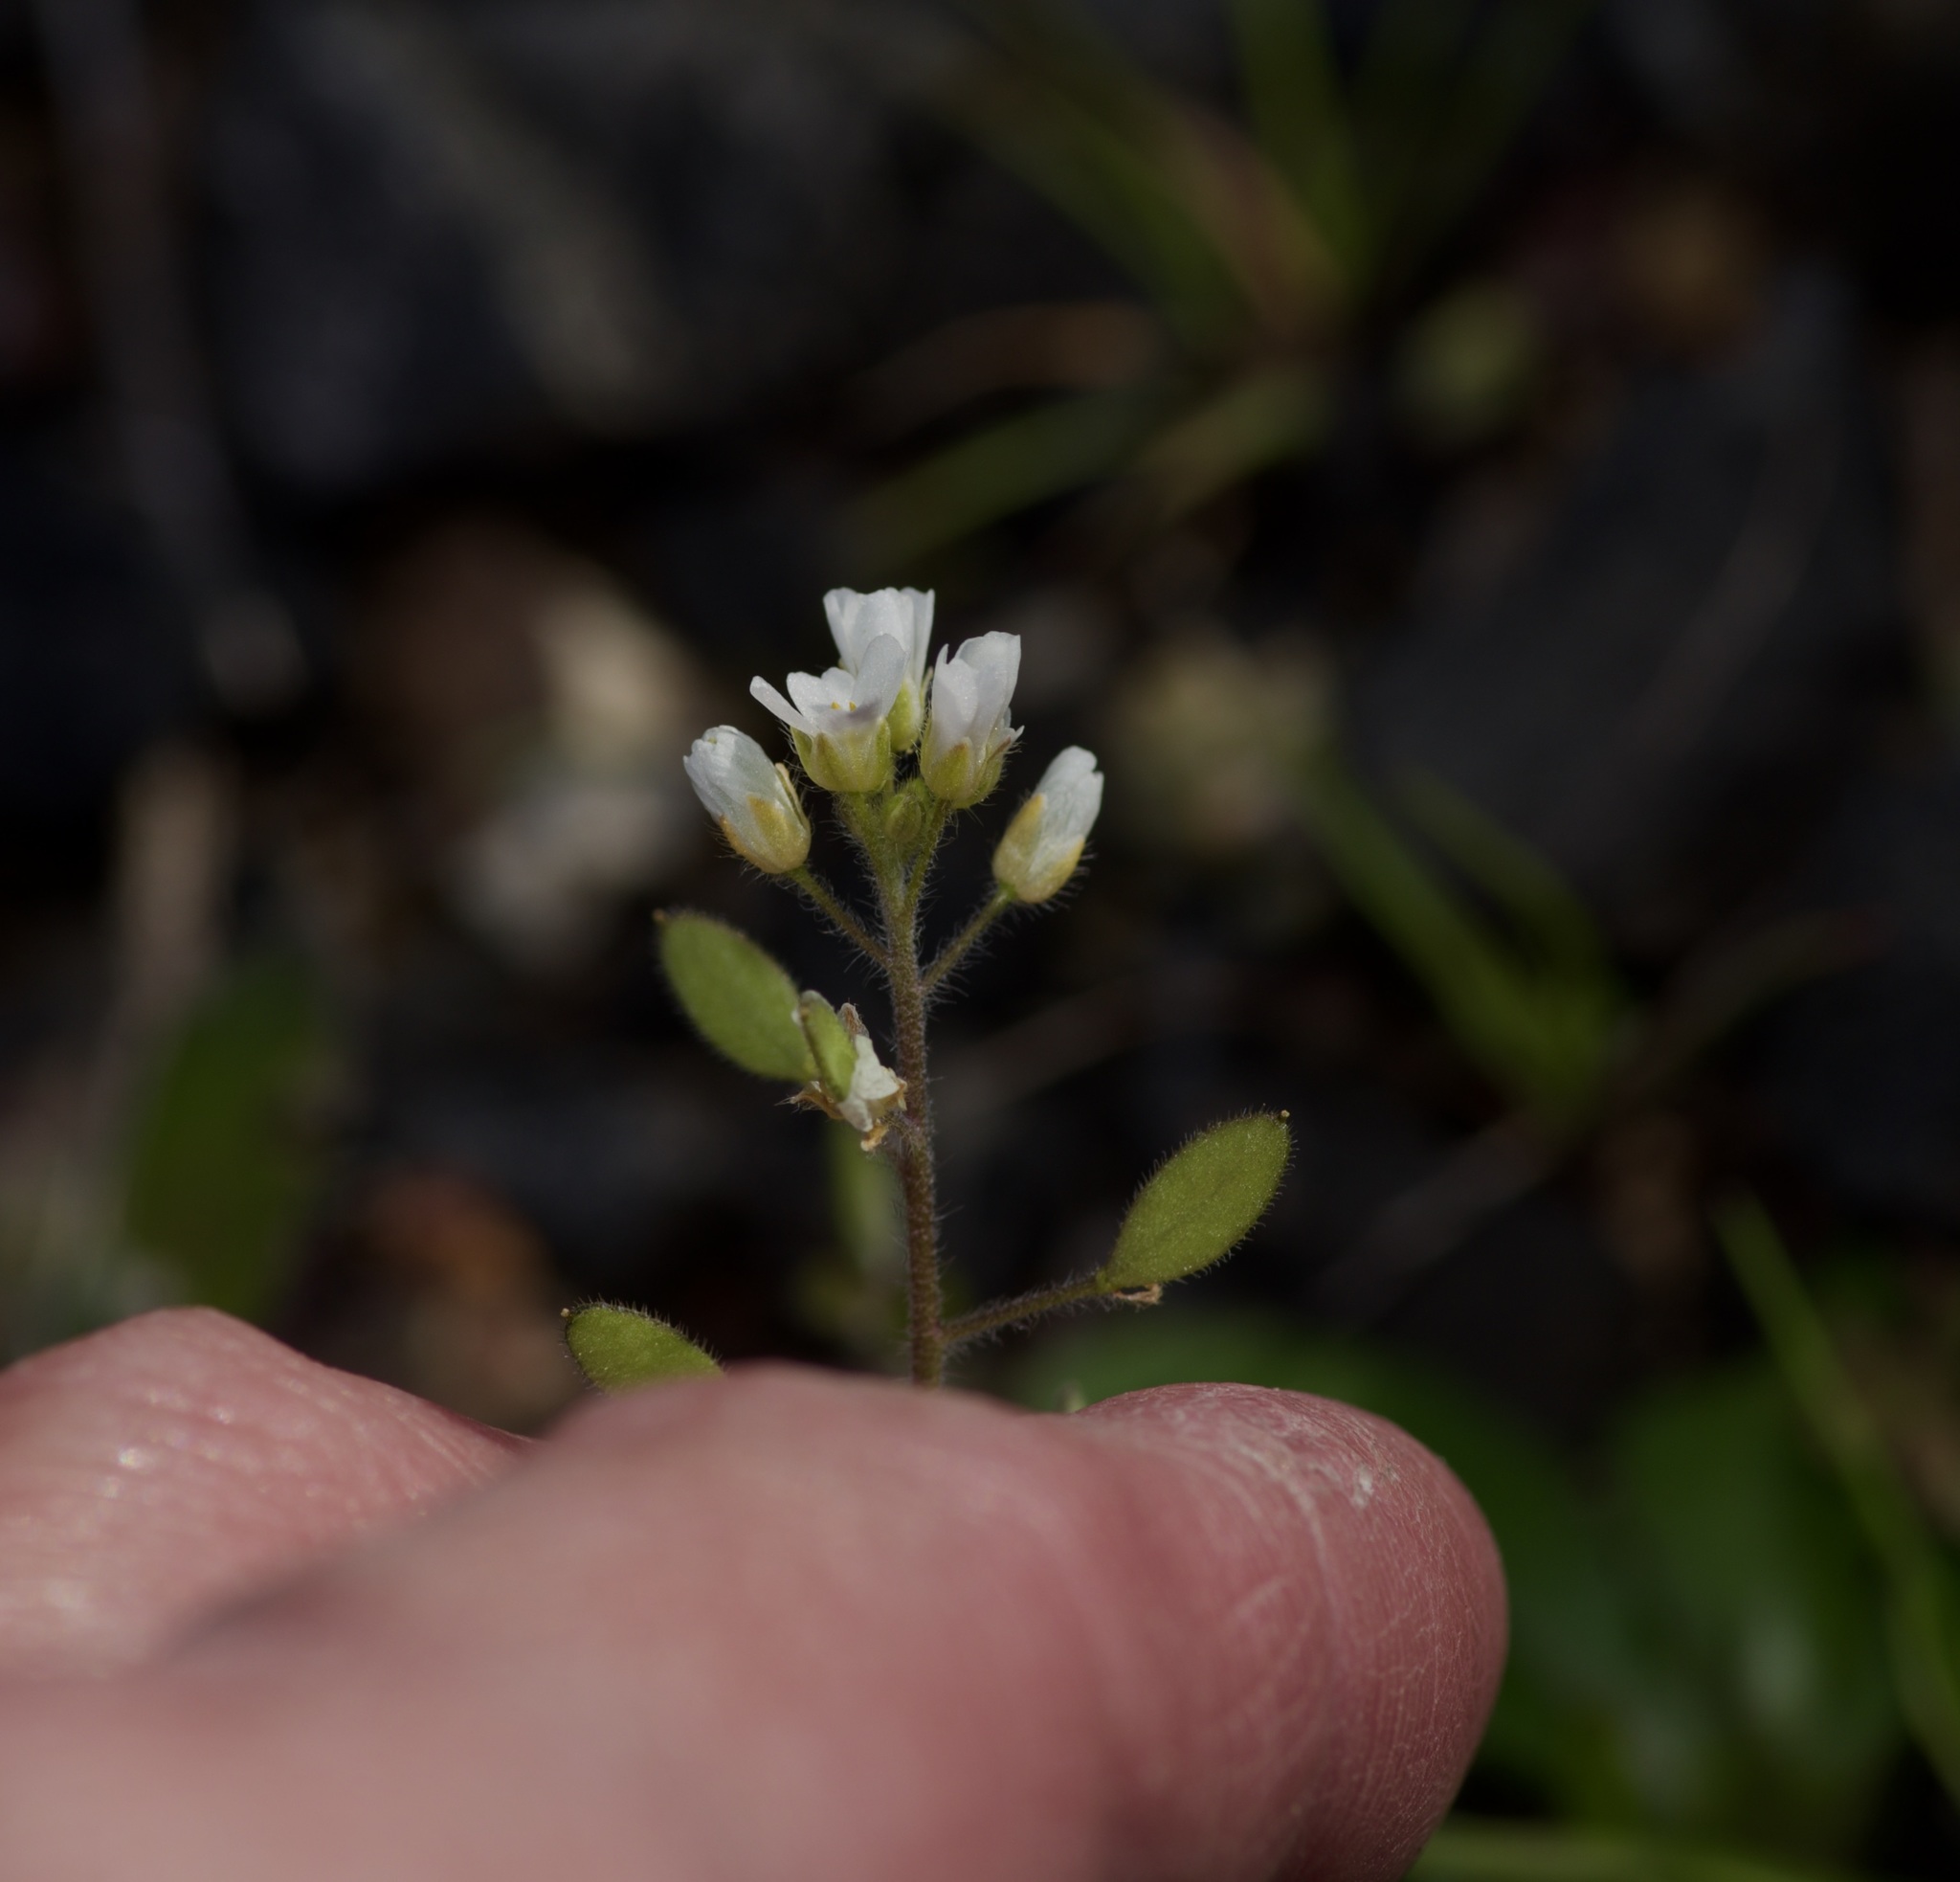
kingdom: Plantae
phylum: Tracheophyta
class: Magnoliopsida
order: Brassicales
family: Brassicaceae
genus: Tomostima
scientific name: Tomostima platycarpa
